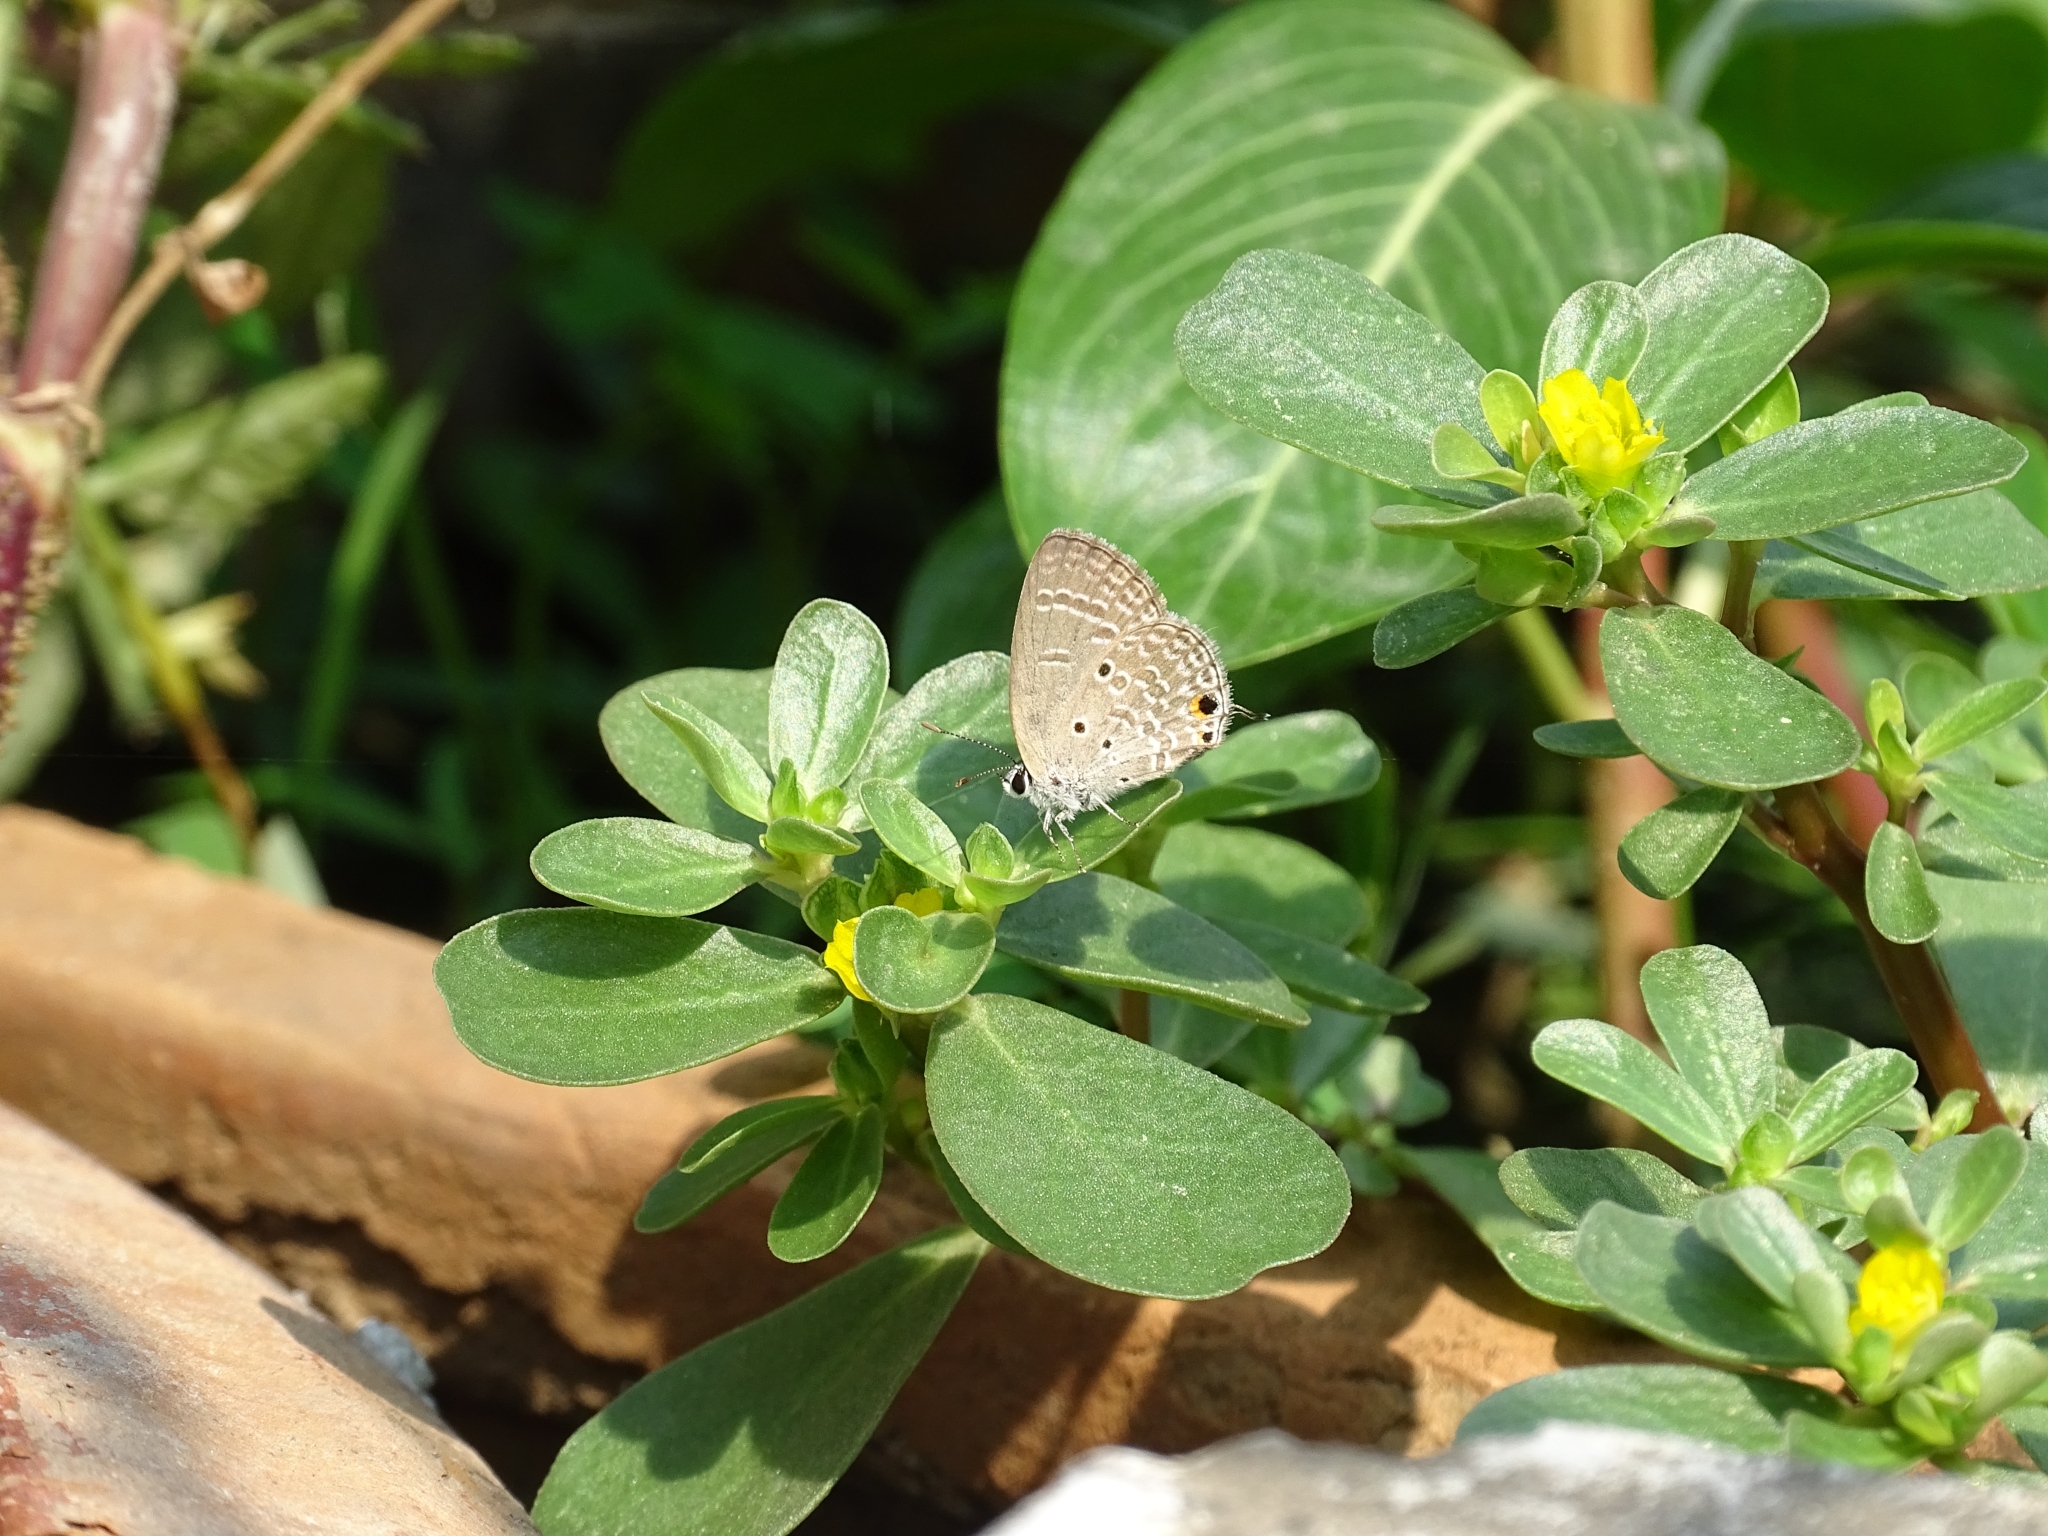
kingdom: Animalia
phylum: Arthropoda
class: Insecta
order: Lepidoptera
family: Lycaenidae
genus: Luthrodes
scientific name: Luthrodes pandava
